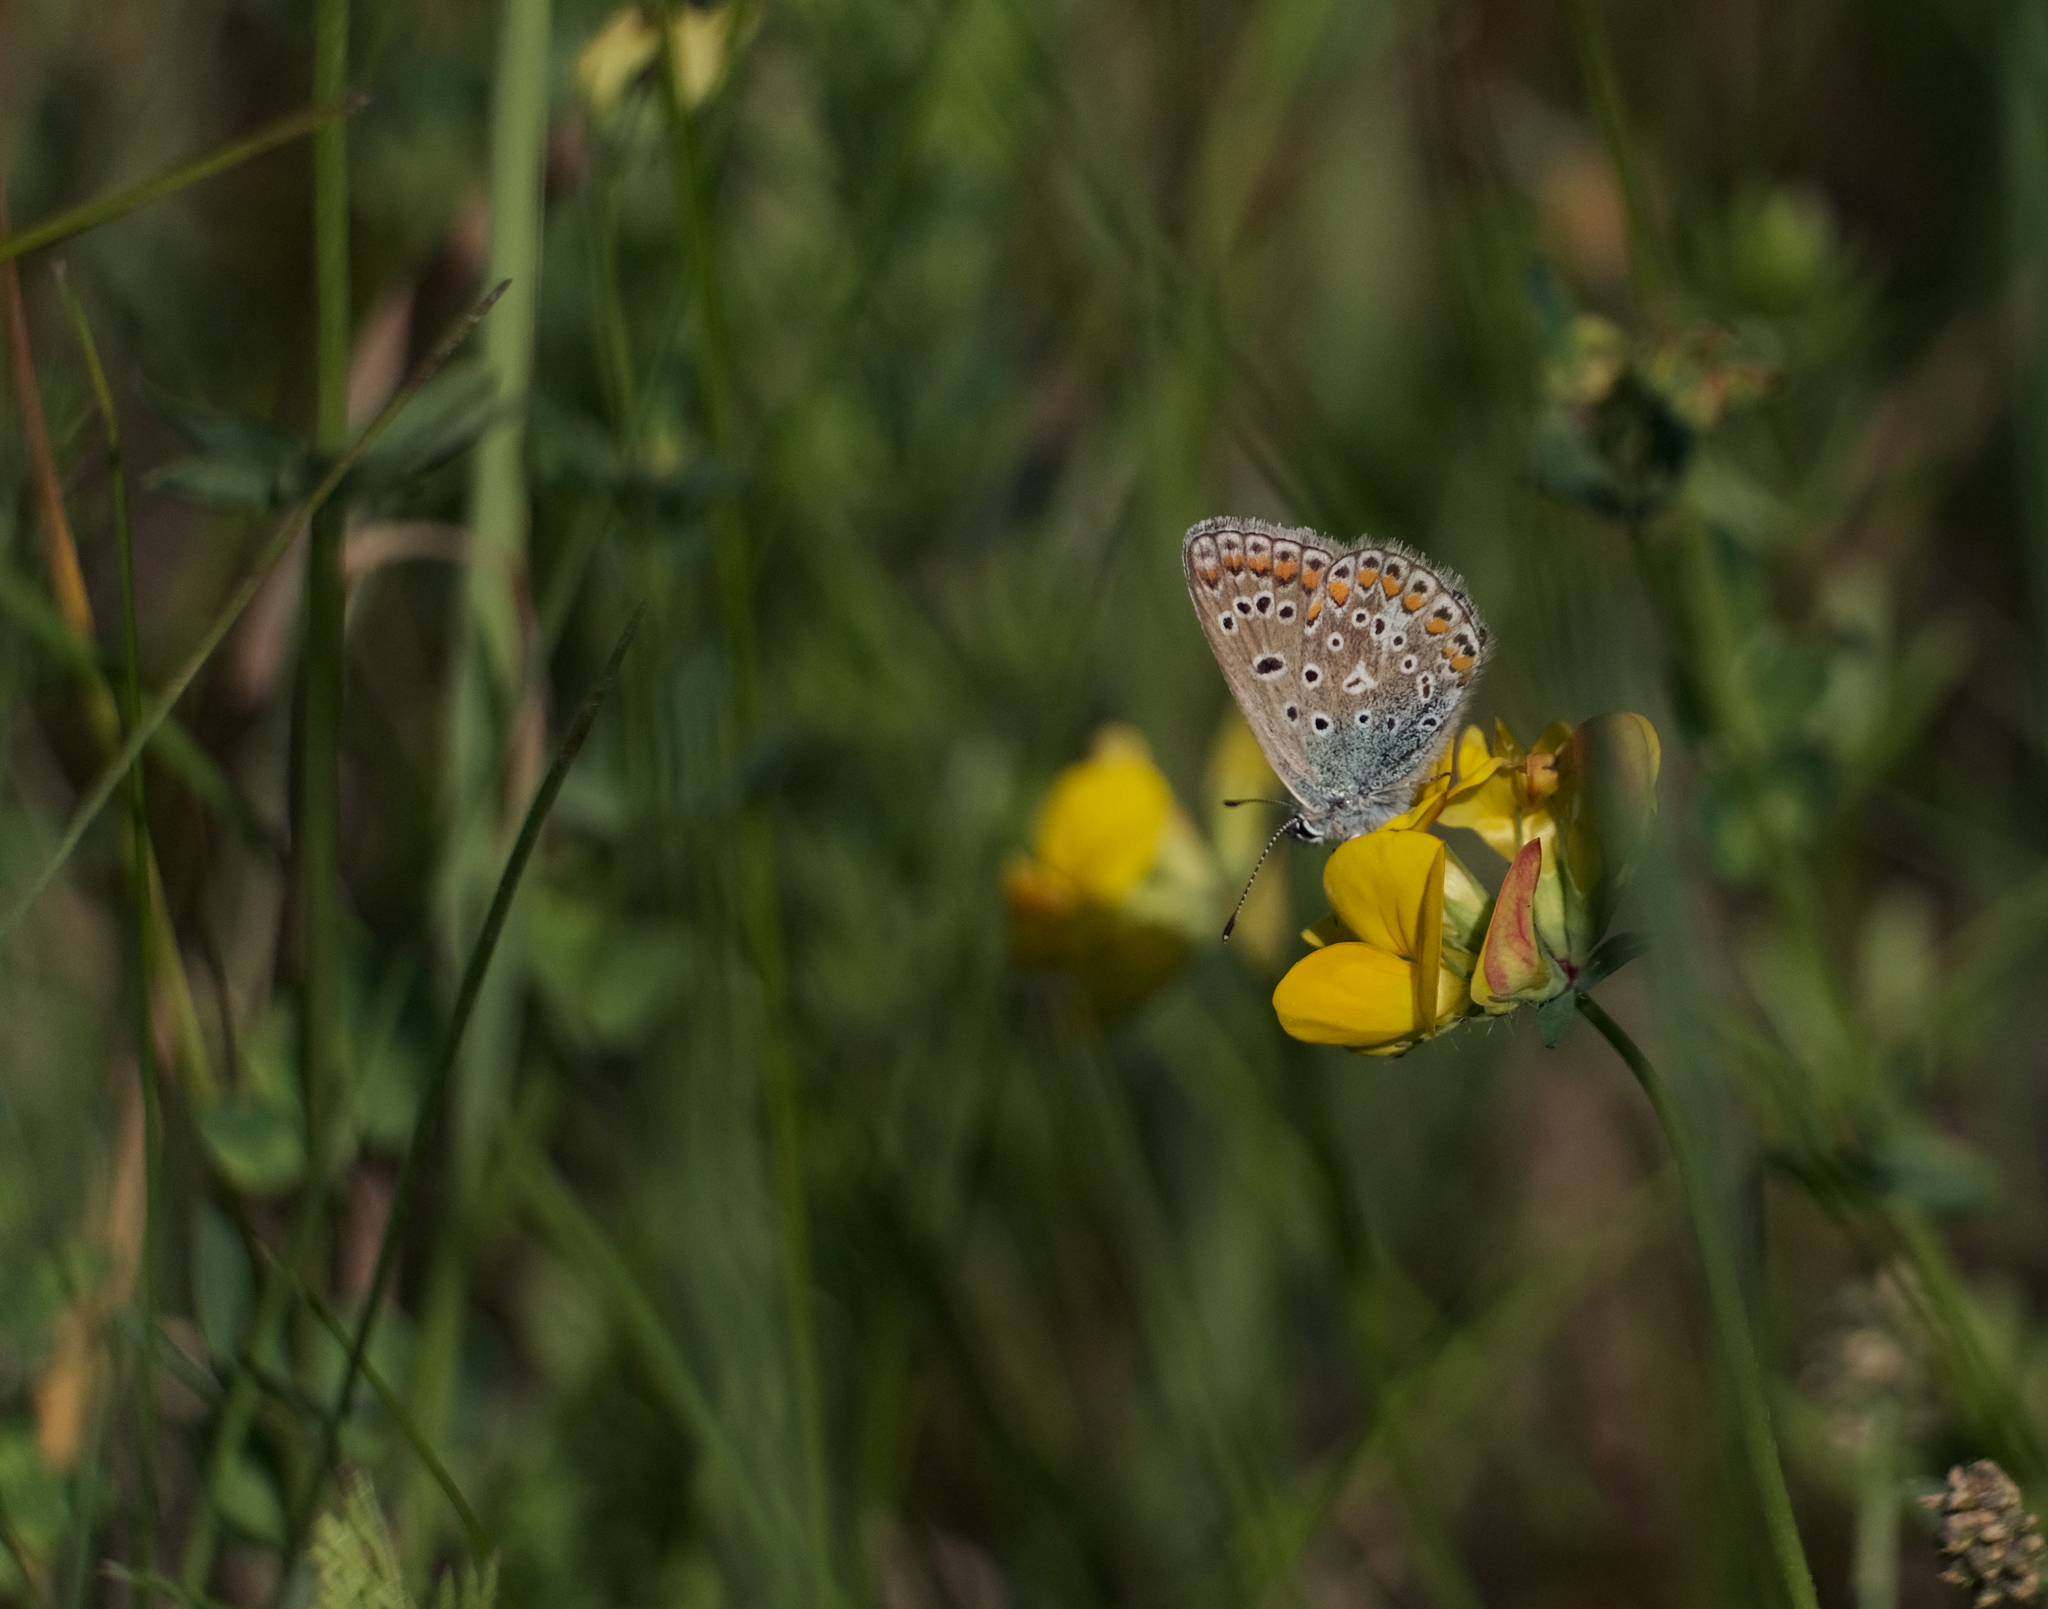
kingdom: Animalia
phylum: Arthropoda
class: Insecta
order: Lepidoptera
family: Lycaenidae
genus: Polyommatus
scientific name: Polyommatus icarus
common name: Common blue
